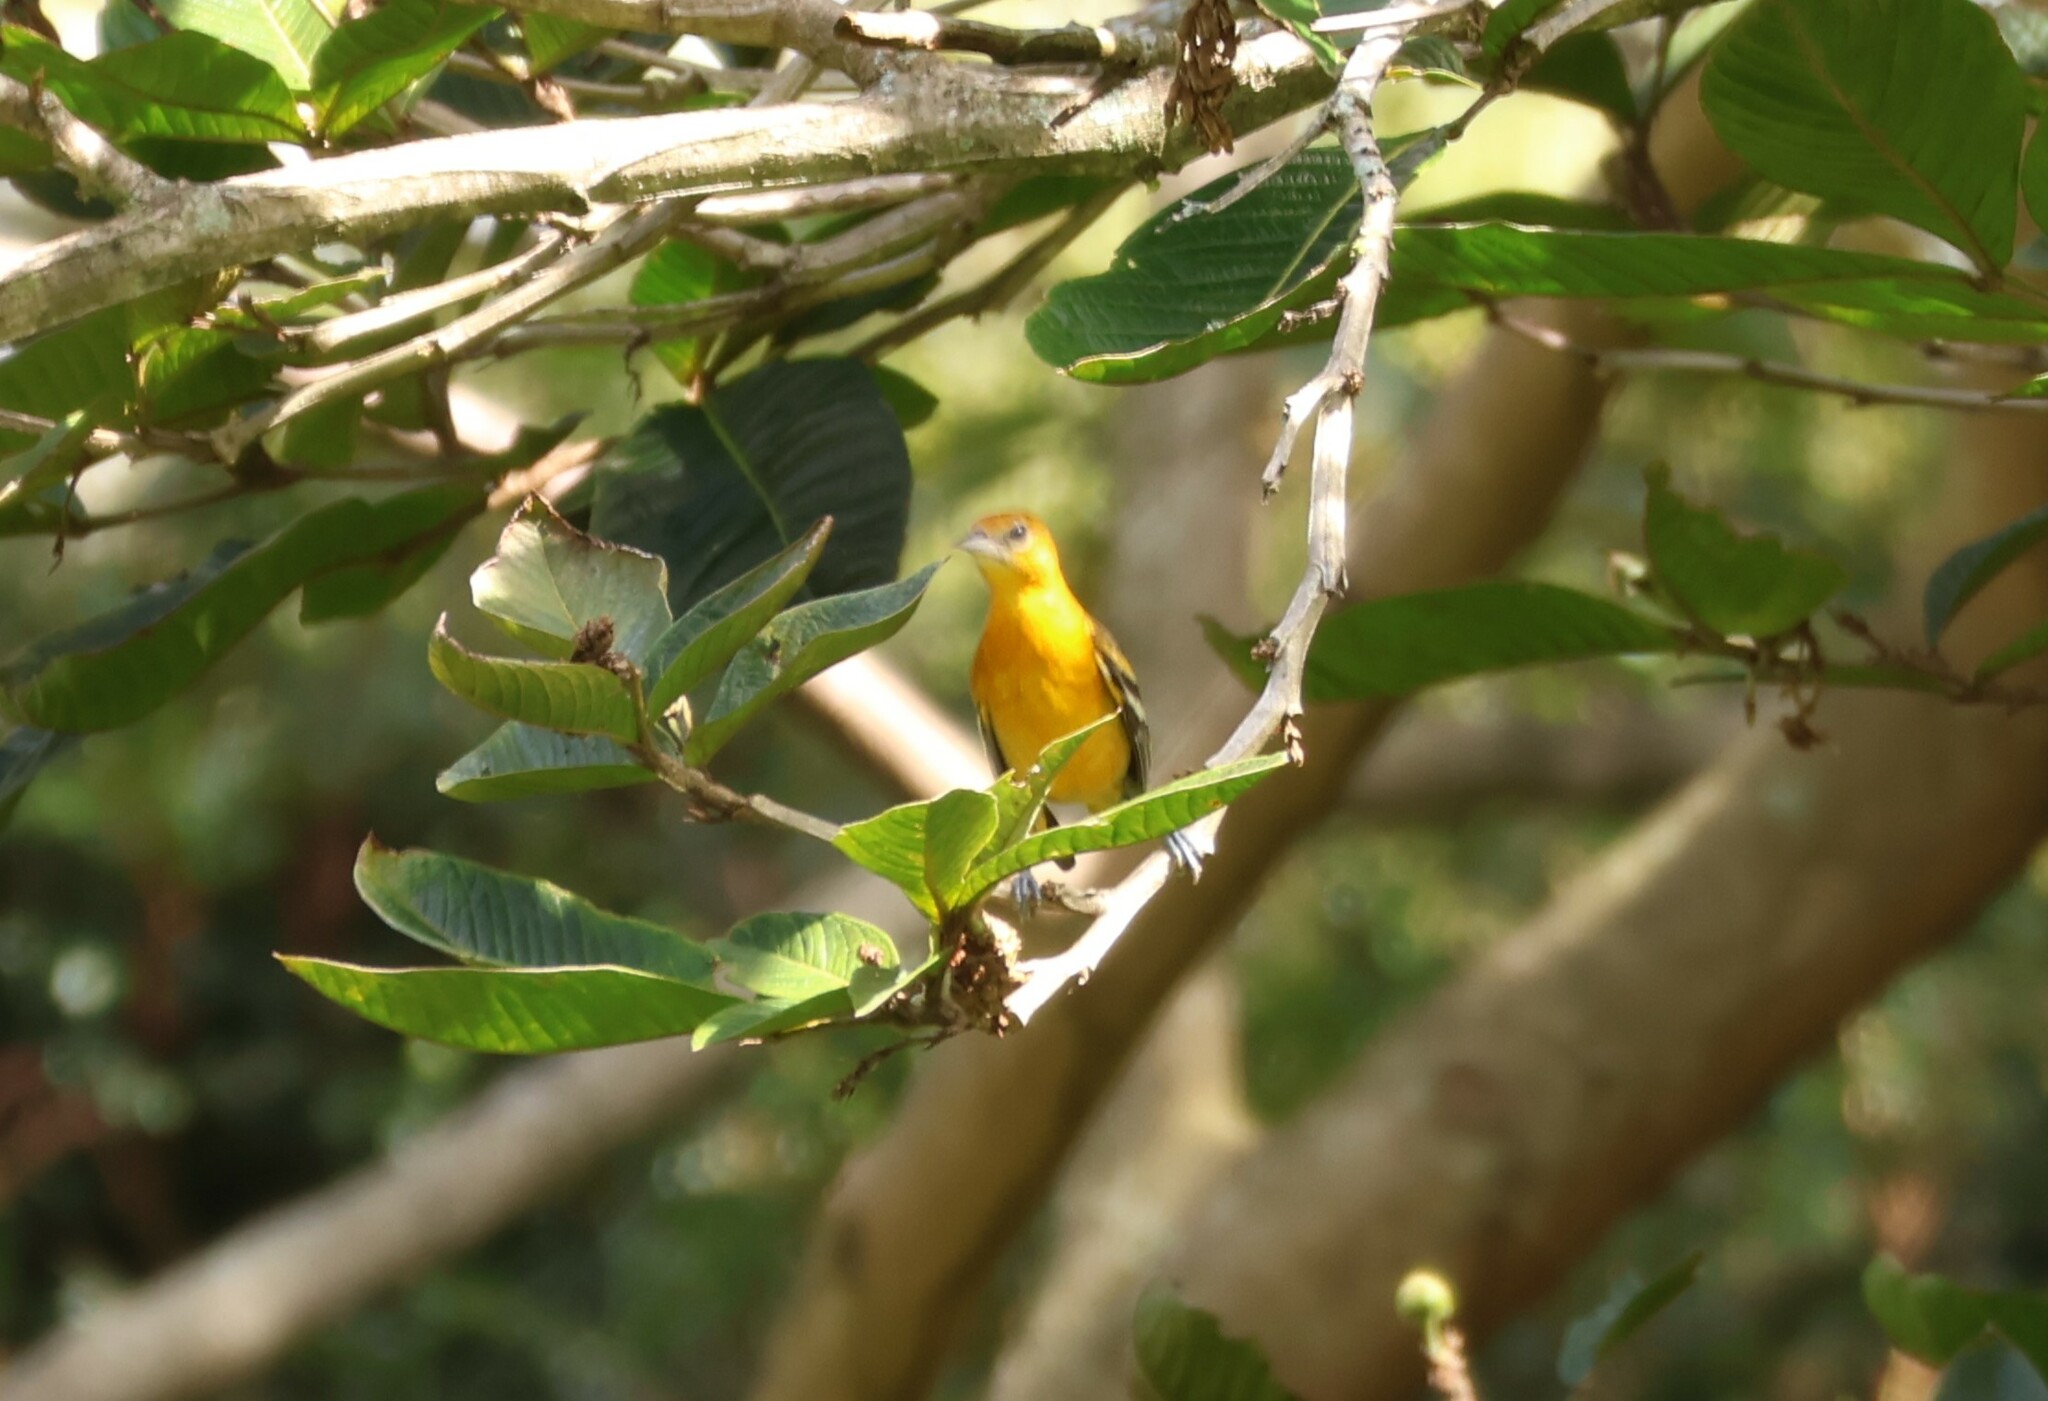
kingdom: Animalia
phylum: Chordata
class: Aves
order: Passeriformes
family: Icteridae
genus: Icterus
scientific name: Icterus galbula
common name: Baltimore oriole
